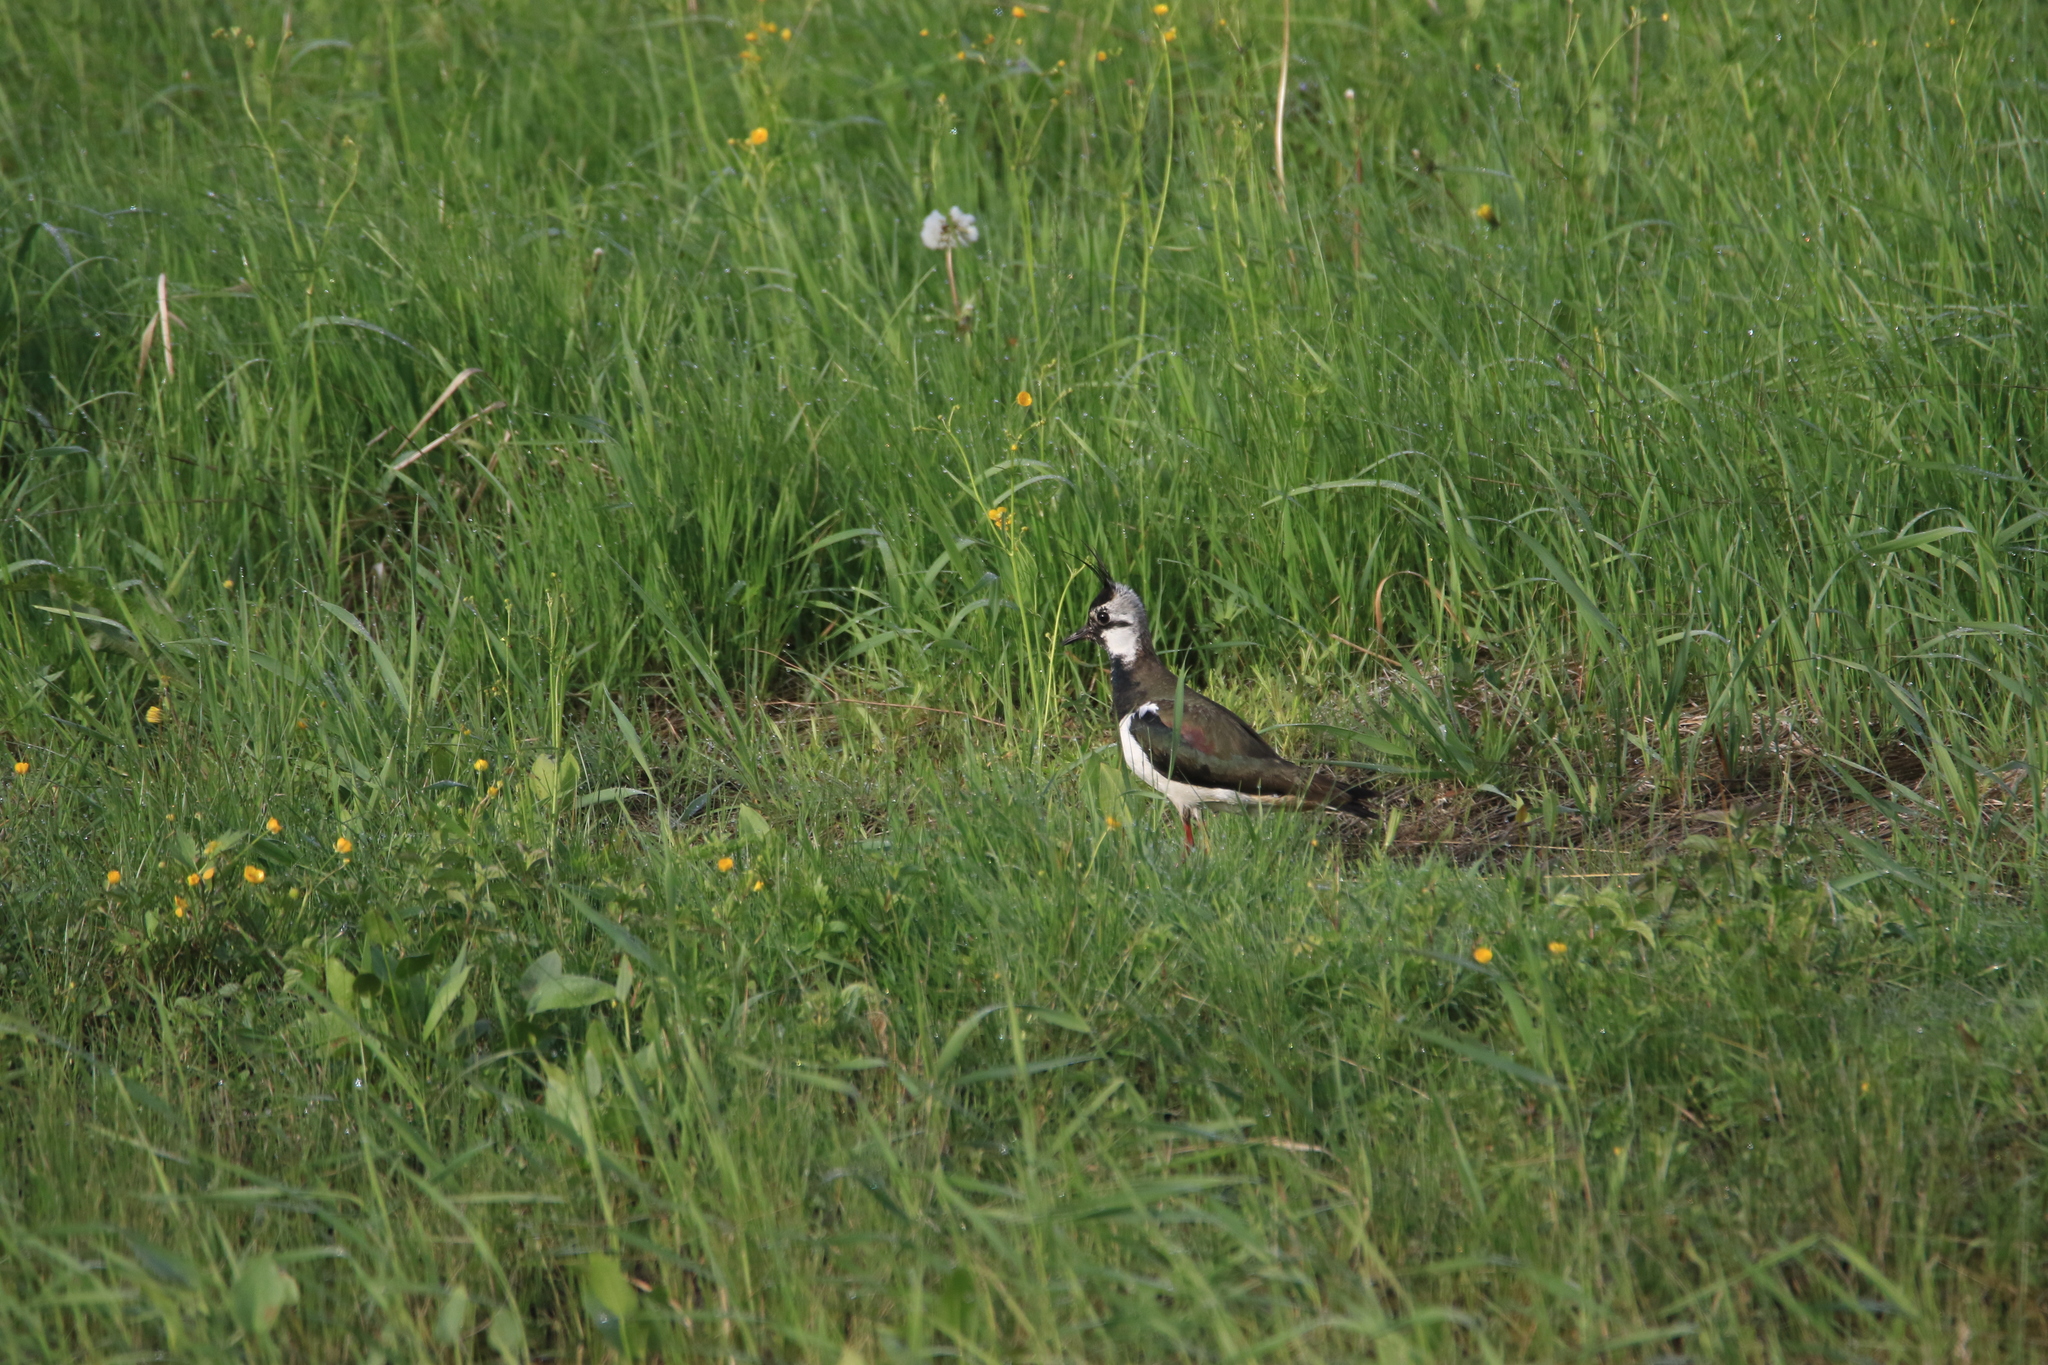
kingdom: Animalia
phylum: Chordata
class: Aves
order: Charadriiformes
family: Charadriidae
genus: Vanellus
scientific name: Vanellus vanellus
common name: Northern lapwing
